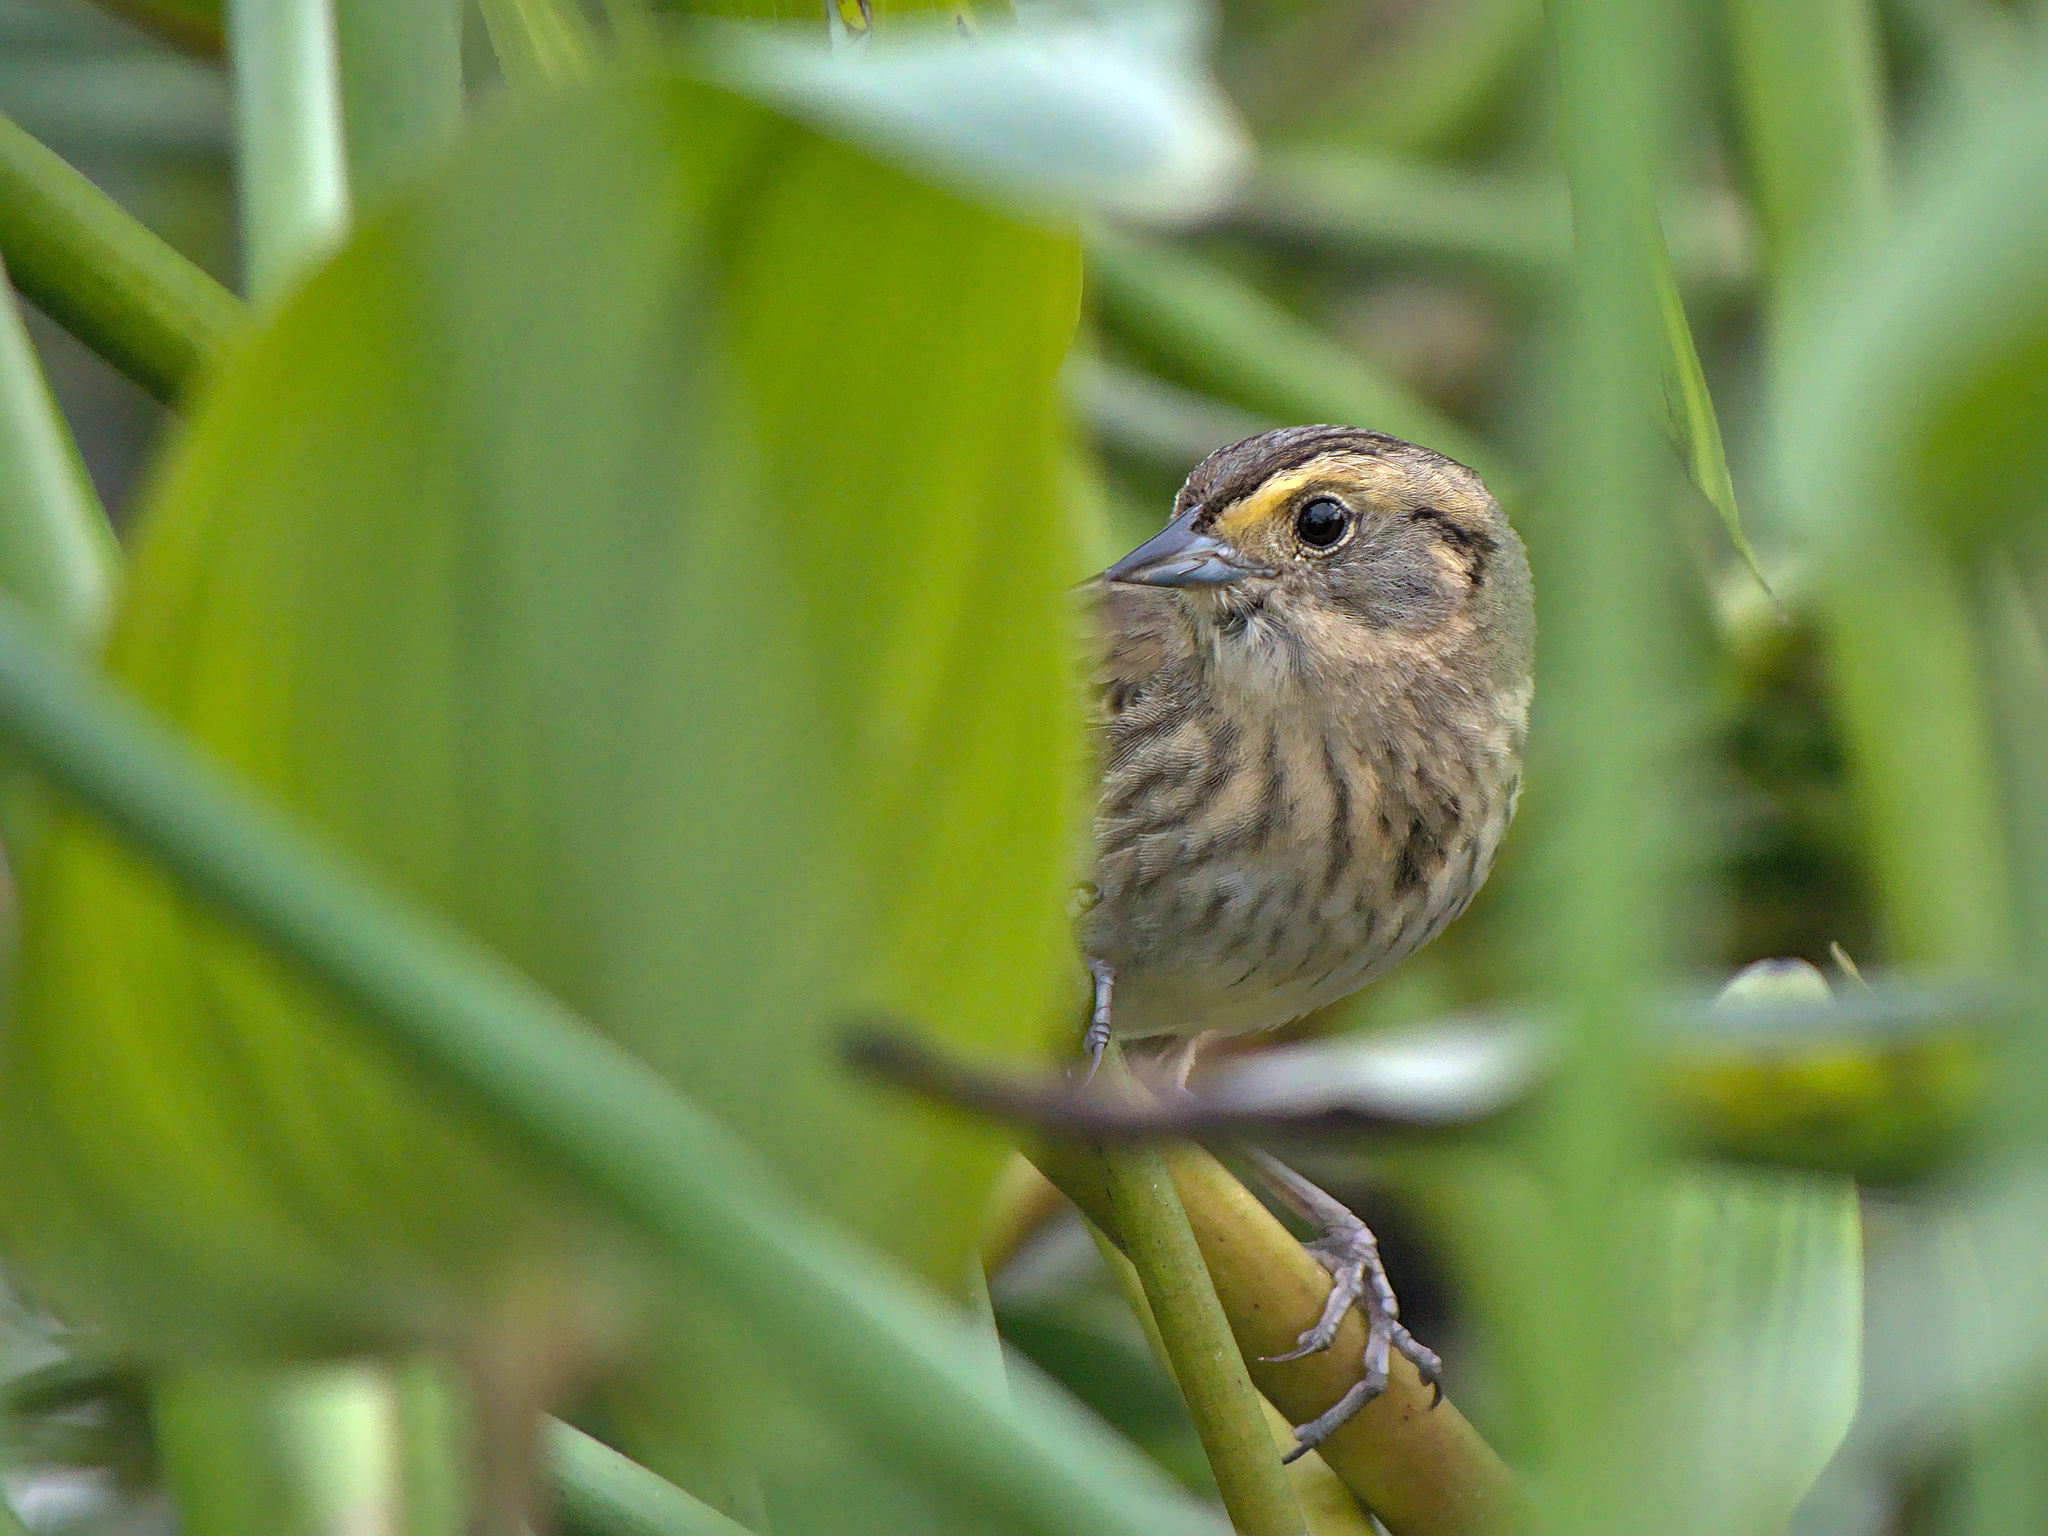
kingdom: Animalia
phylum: Chordata
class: Aves
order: Passeriformes
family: Passerellidae
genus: Ammospiza
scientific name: Ammospiza nelsoni
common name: Nelson's sparrow
